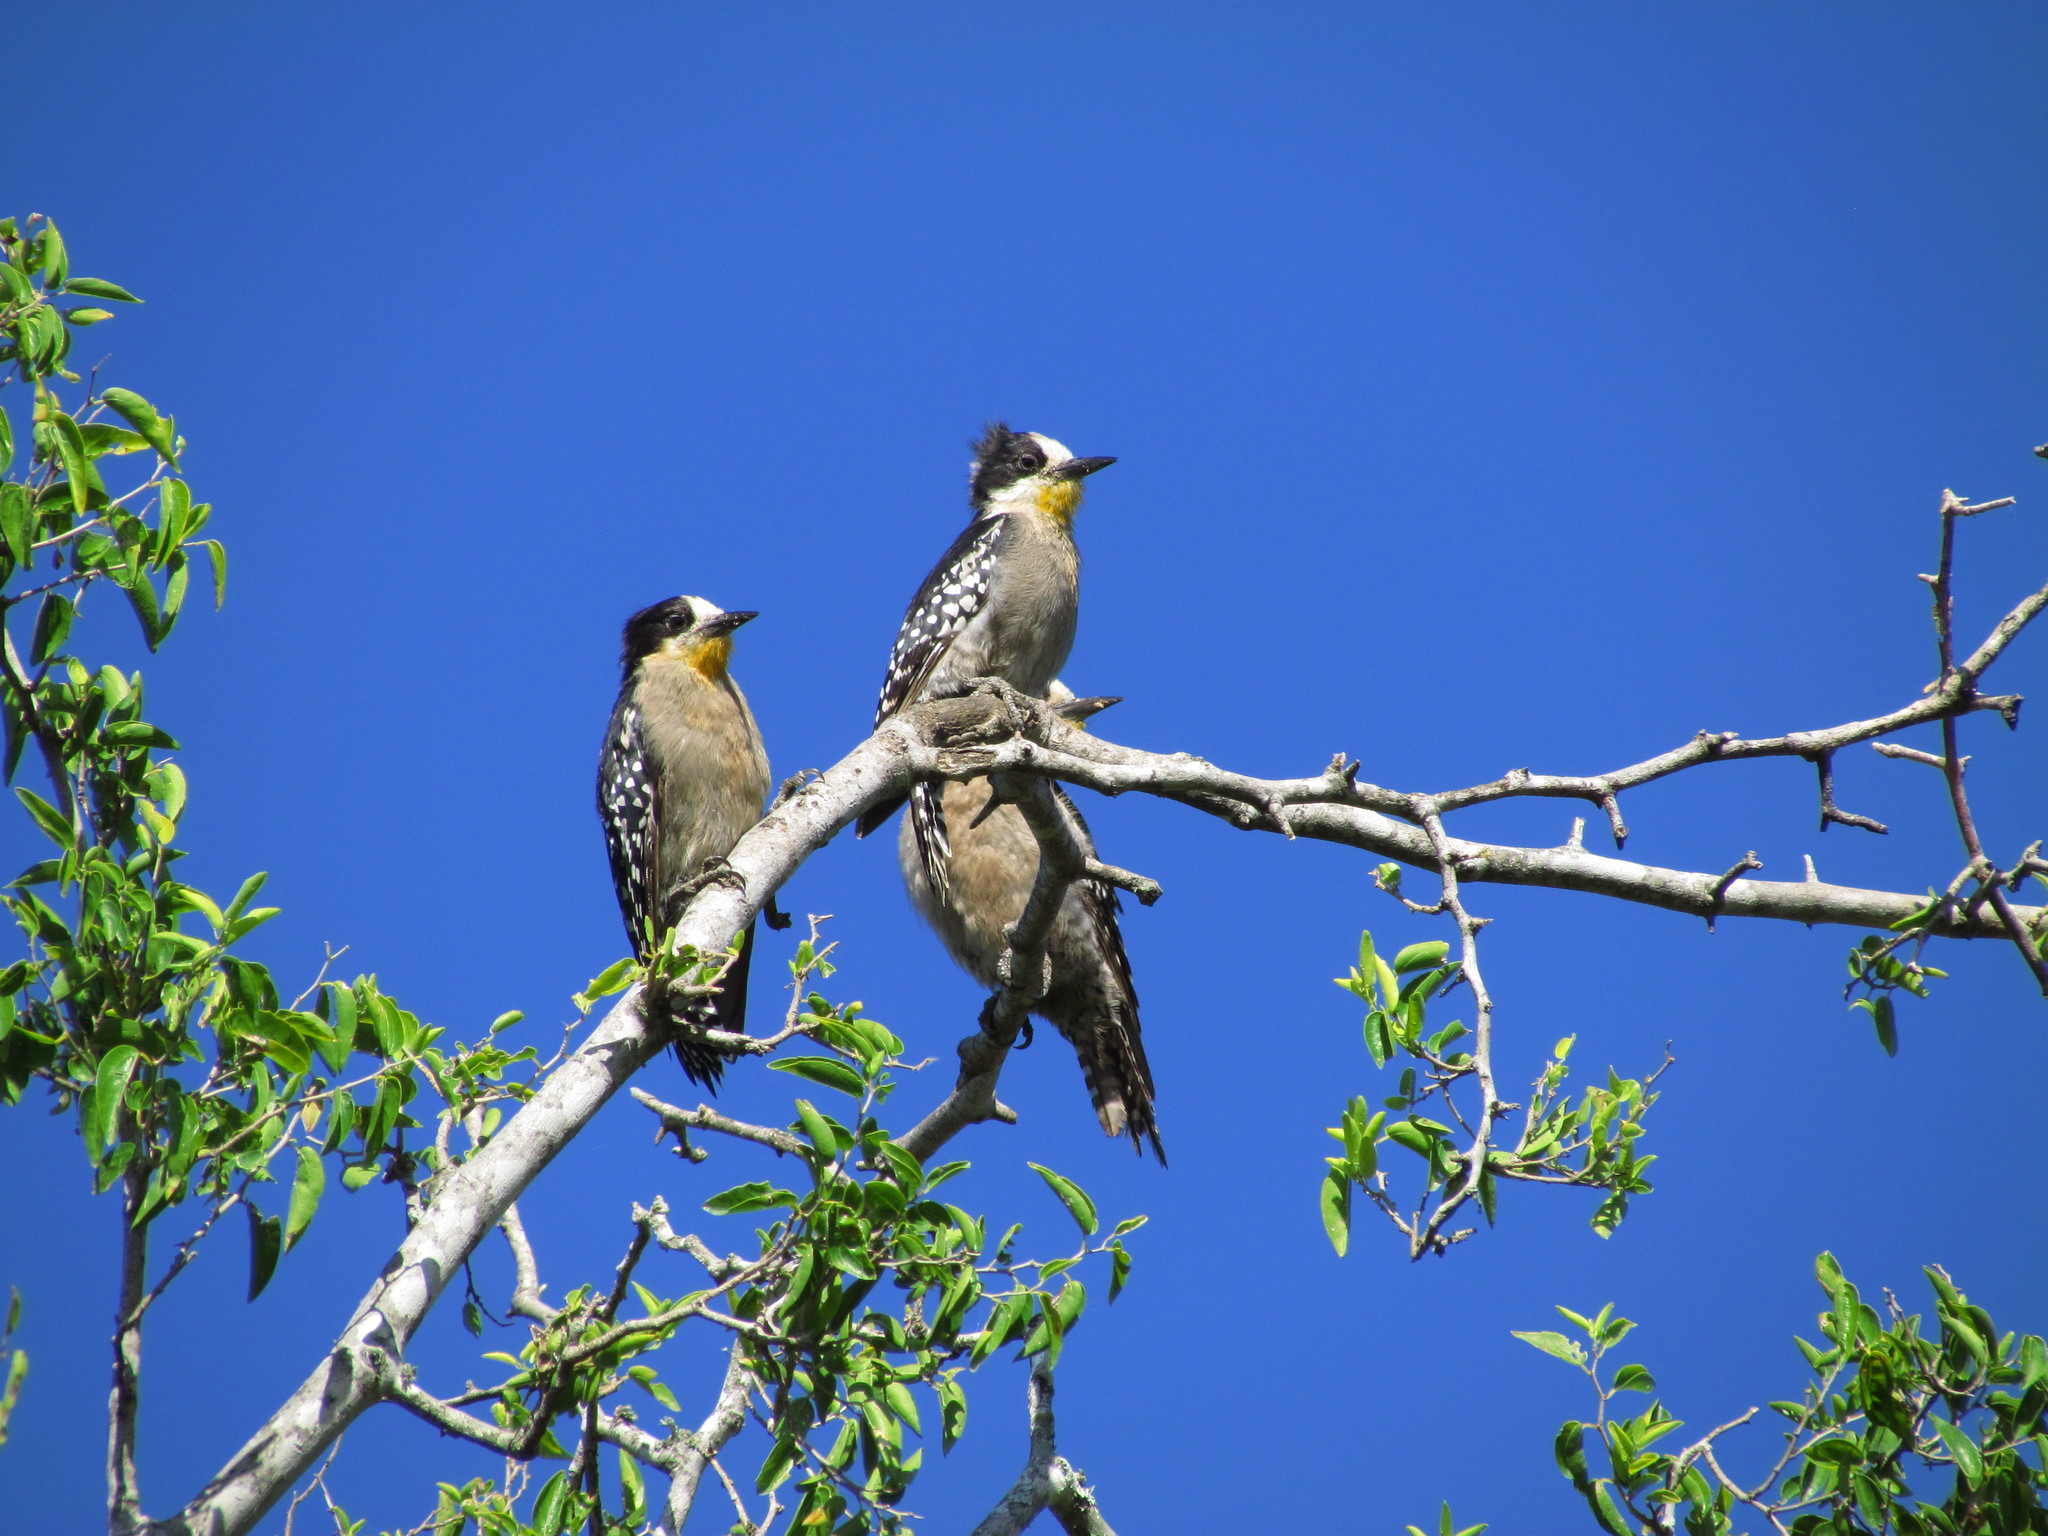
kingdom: Animalia
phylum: Chordata
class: Aves
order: Piciformes
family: Picidae
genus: Melanerpes
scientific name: Melanerpes cactorum
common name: White-fronted woodpecker
